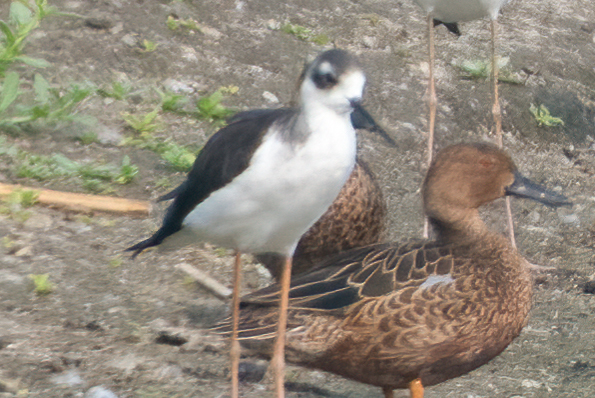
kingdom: Animalia
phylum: Chordata
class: Aves
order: Charadriiformes
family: Recurvirostridae
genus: Himantopus
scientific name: Himantopus mexicanus
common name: Black-necked stilt
